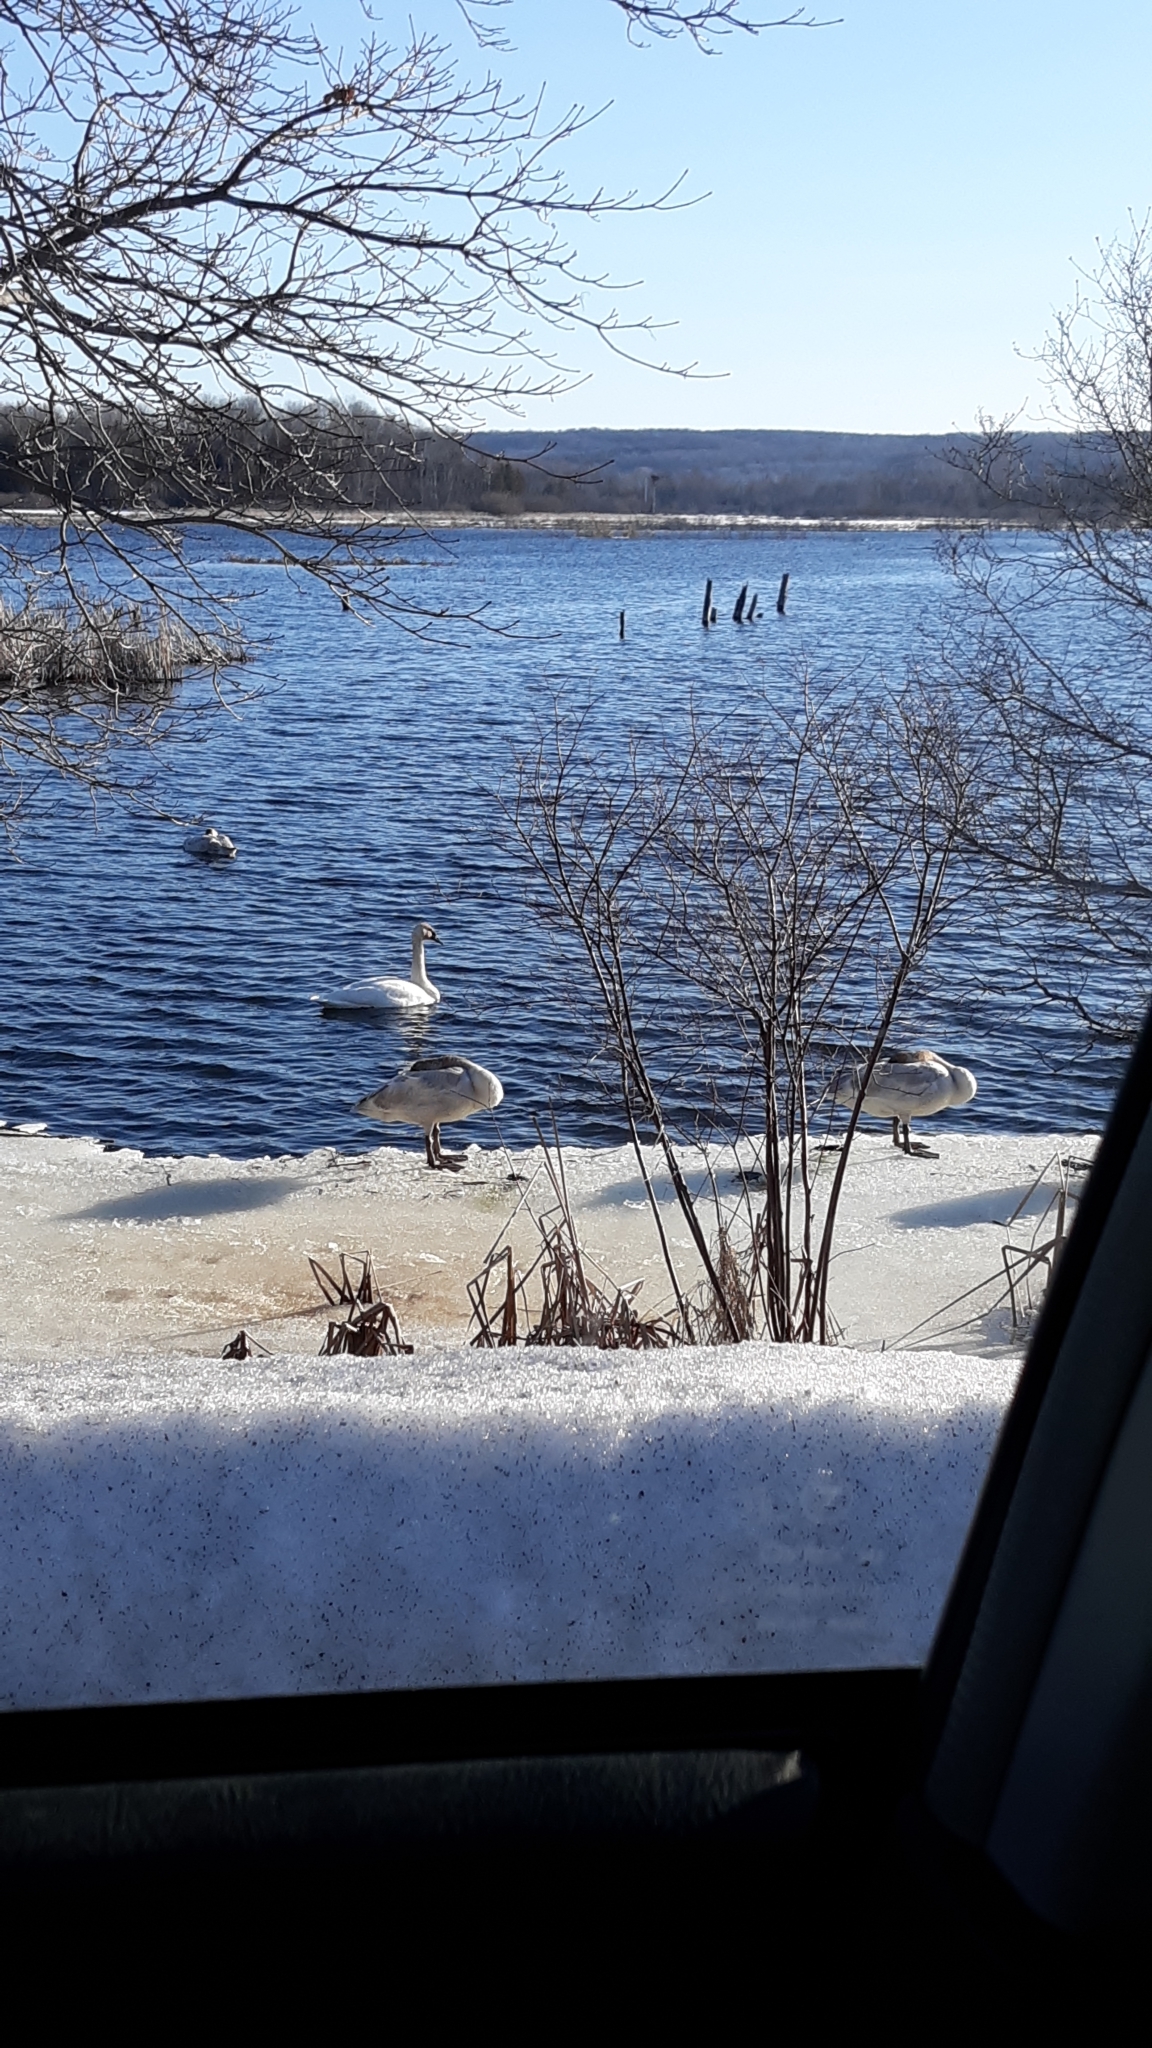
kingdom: Animalia
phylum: Chordata
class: Aves
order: Anseriformes
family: Anatidae
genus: Cygnus
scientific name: Cygnus buccinator
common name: Trumpeter swan
